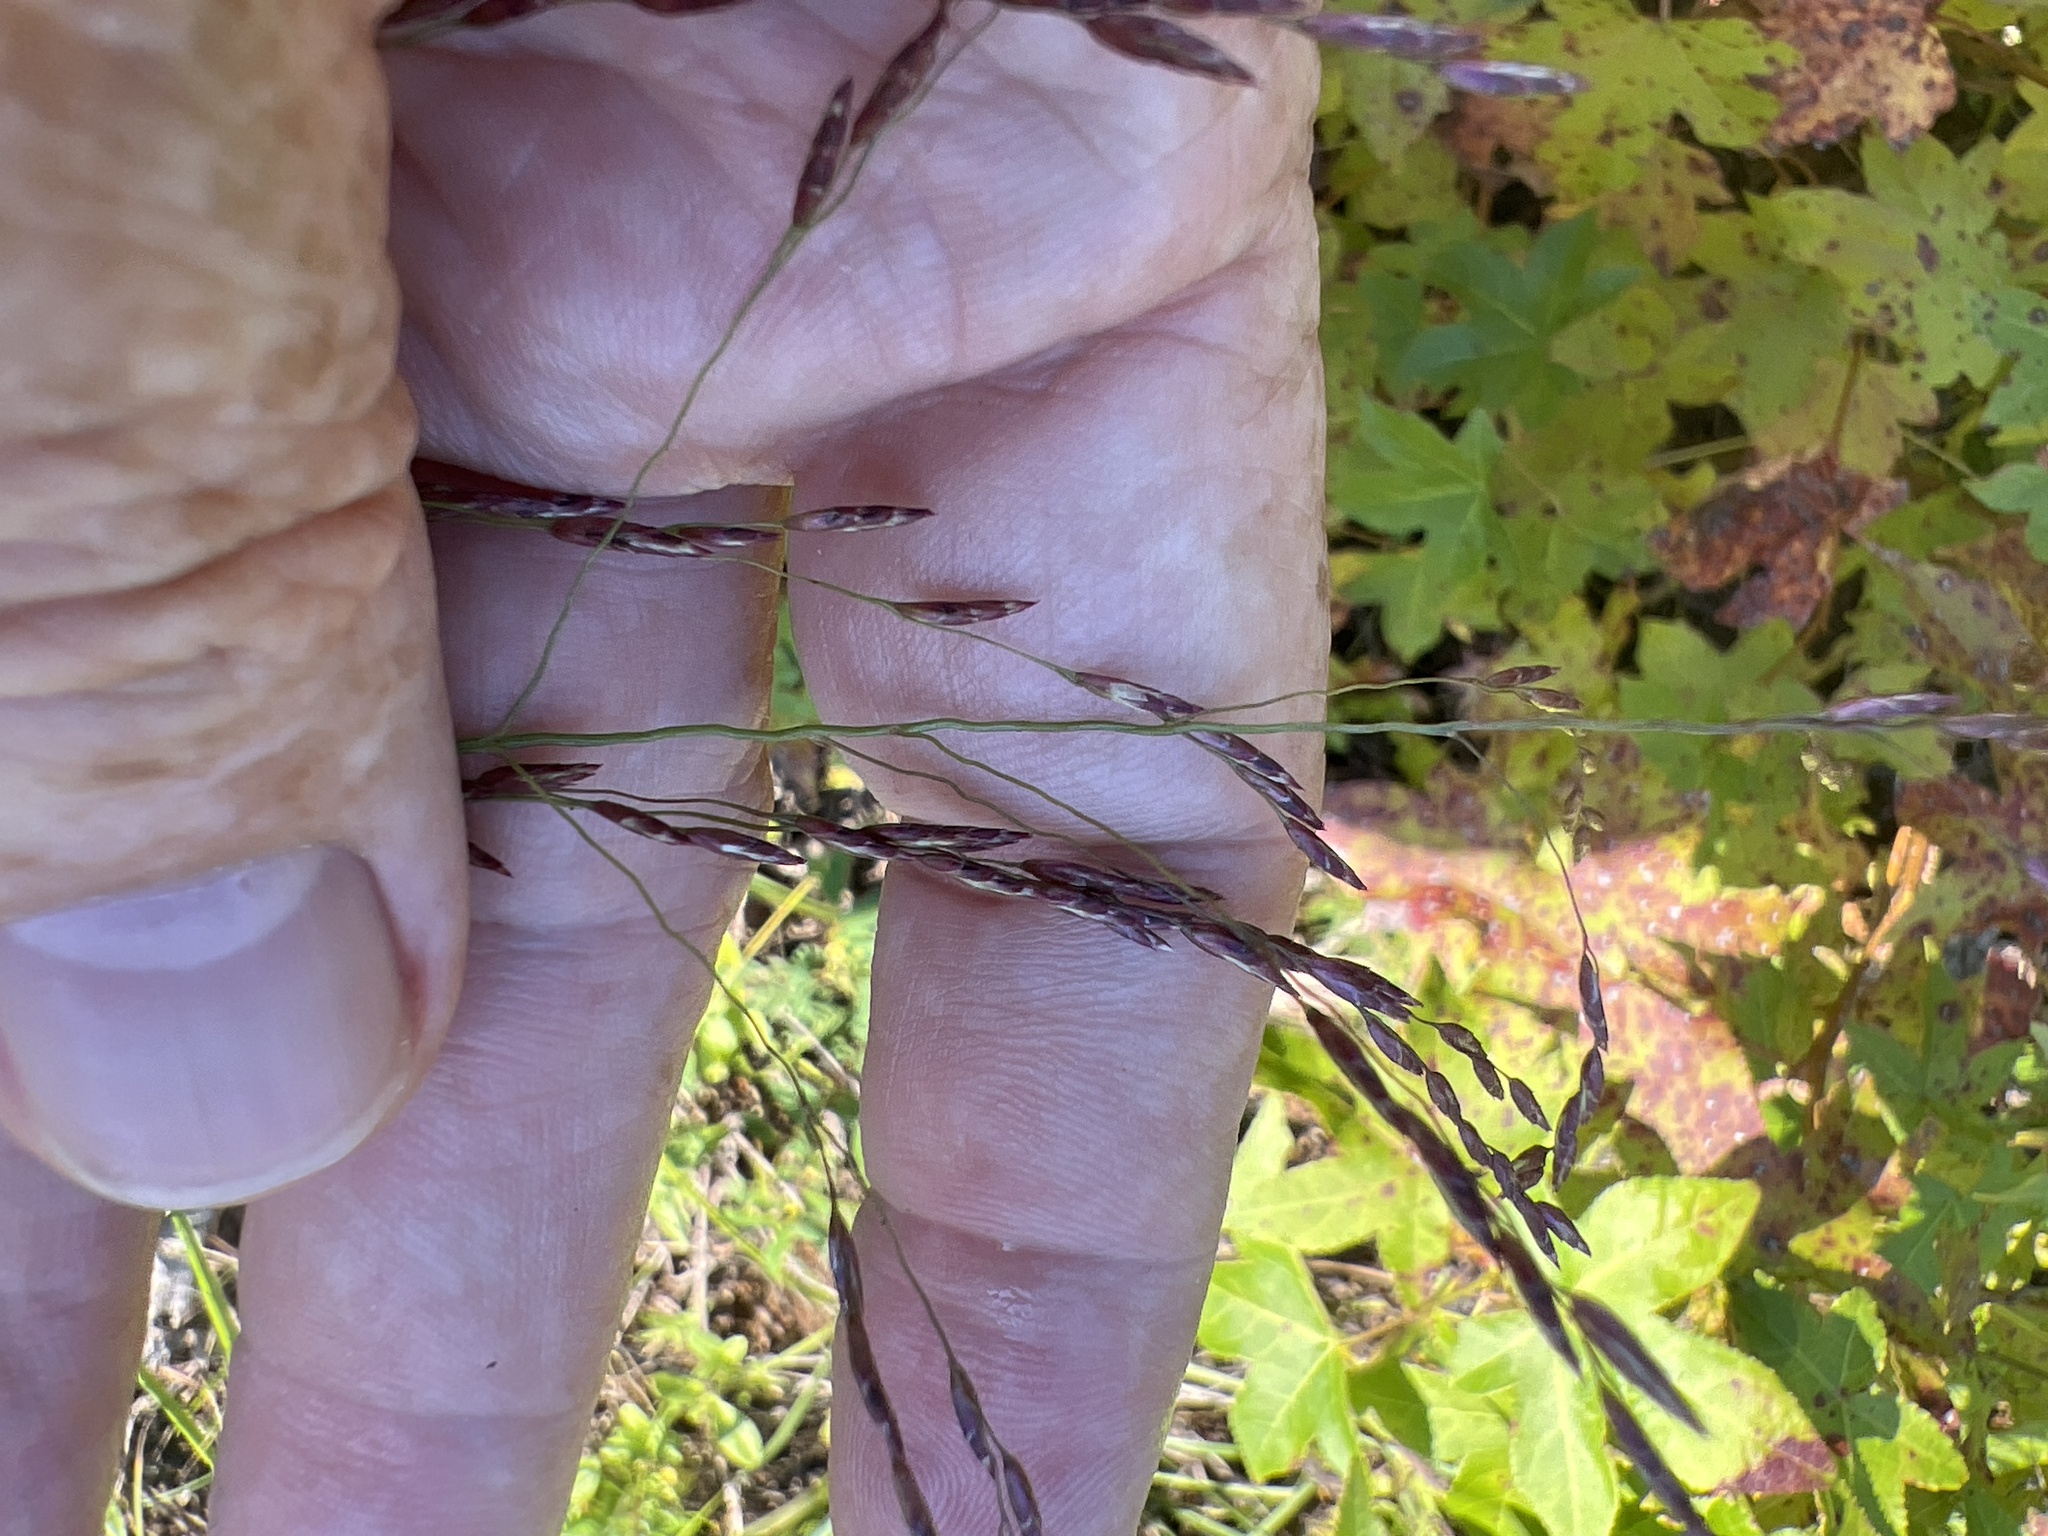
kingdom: Plantae
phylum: Tracheophyta
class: Liliopsida
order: Poales
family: Poaceae
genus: Tridens
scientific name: Tridens flavus
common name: Purpletop
